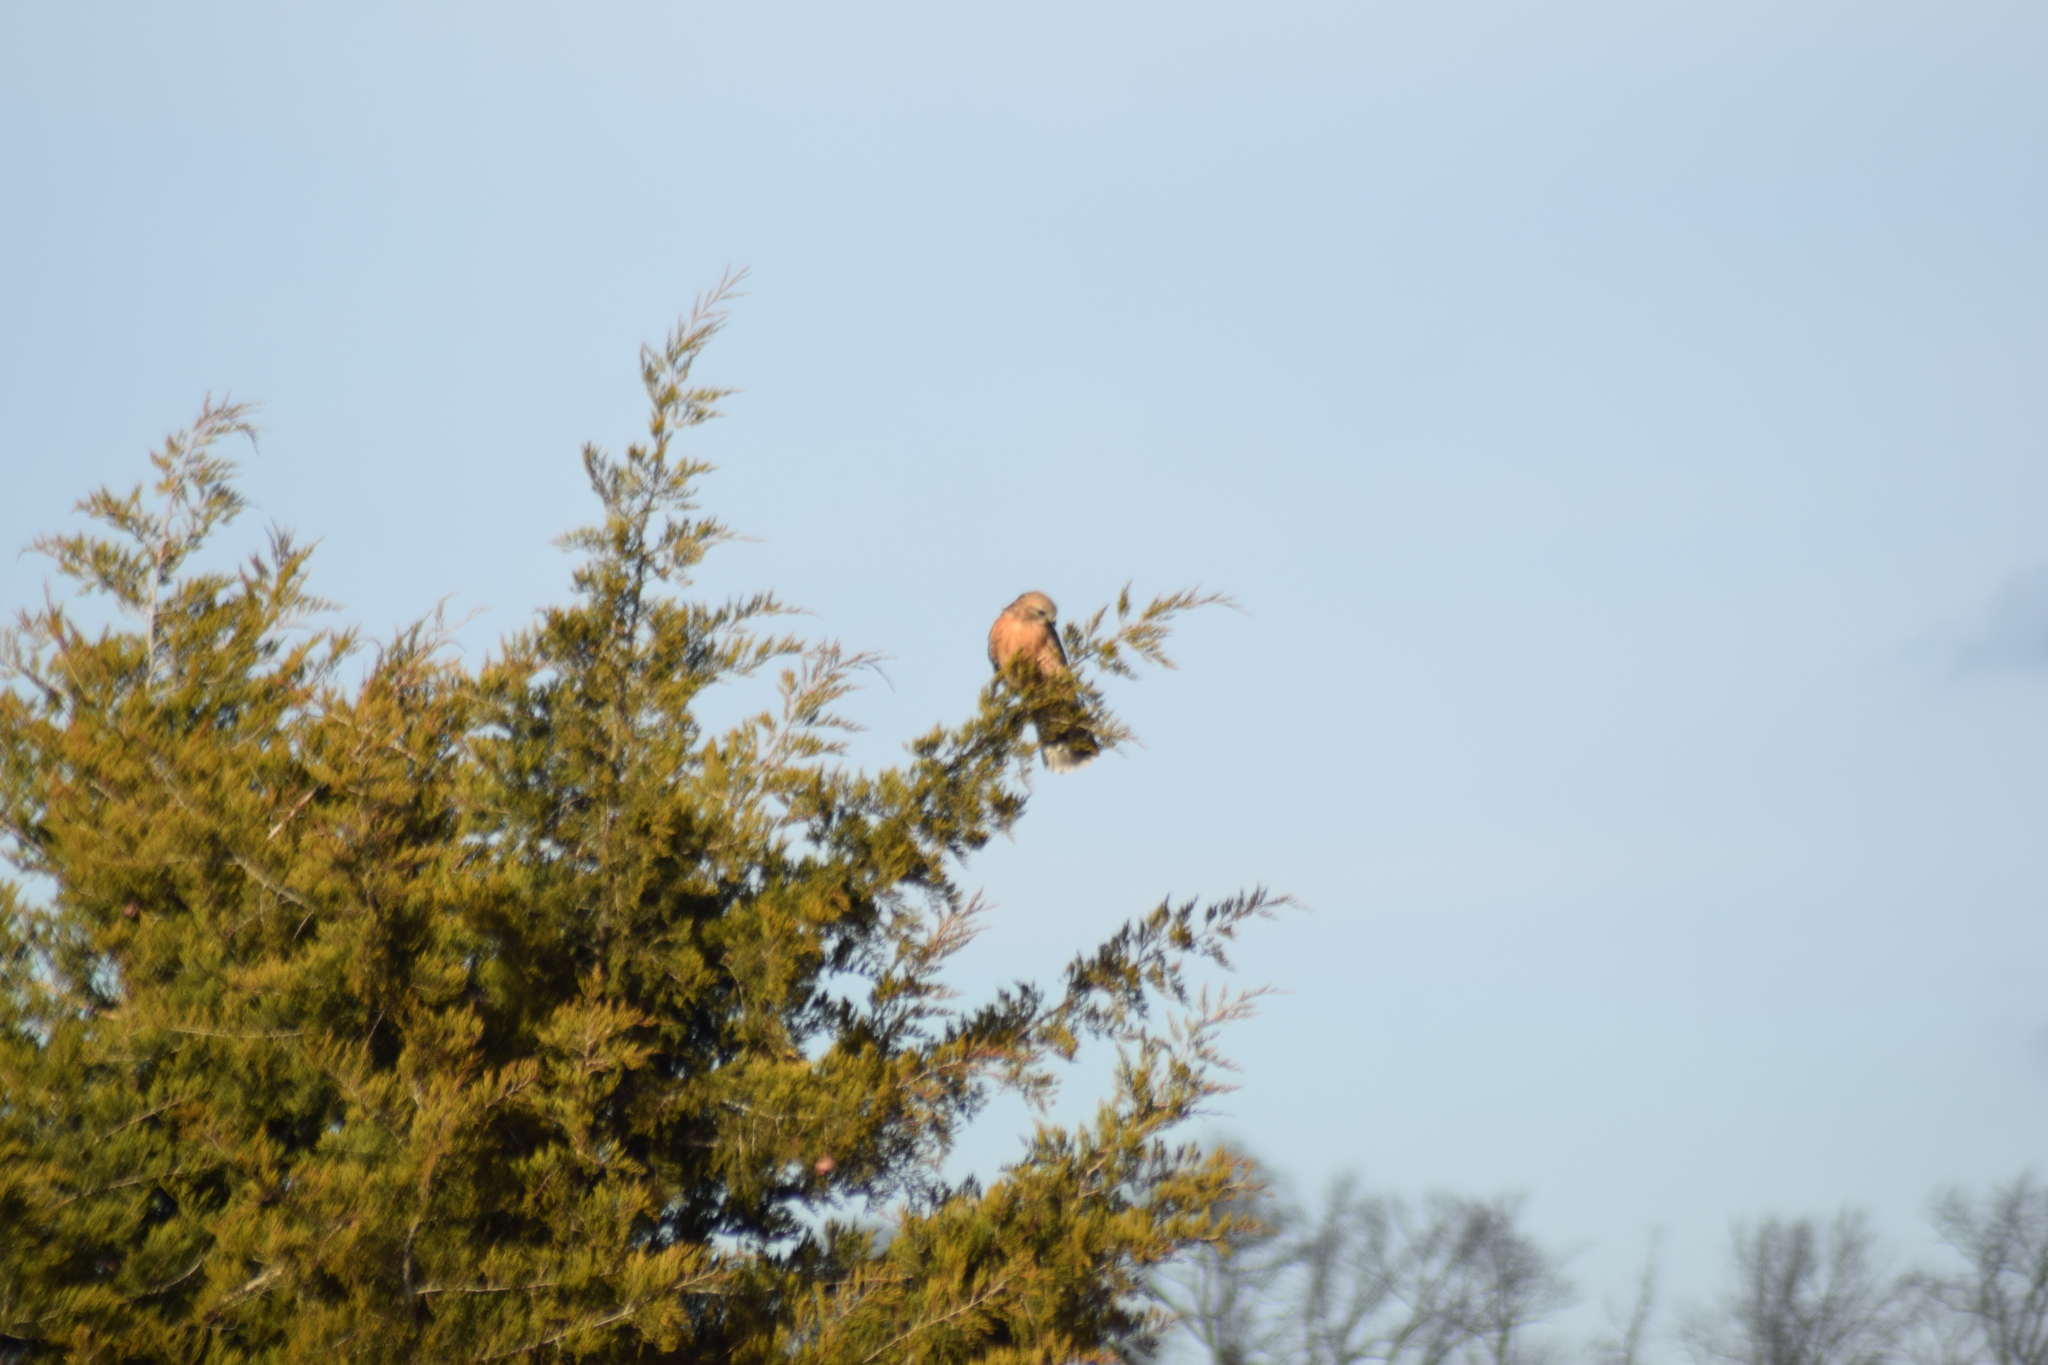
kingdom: Animalia
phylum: Chordata
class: Aves
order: Accipitriformes
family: Accipitridae
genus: Buteo
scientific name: Buteo lineatus
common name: Red-shouldered hawk
